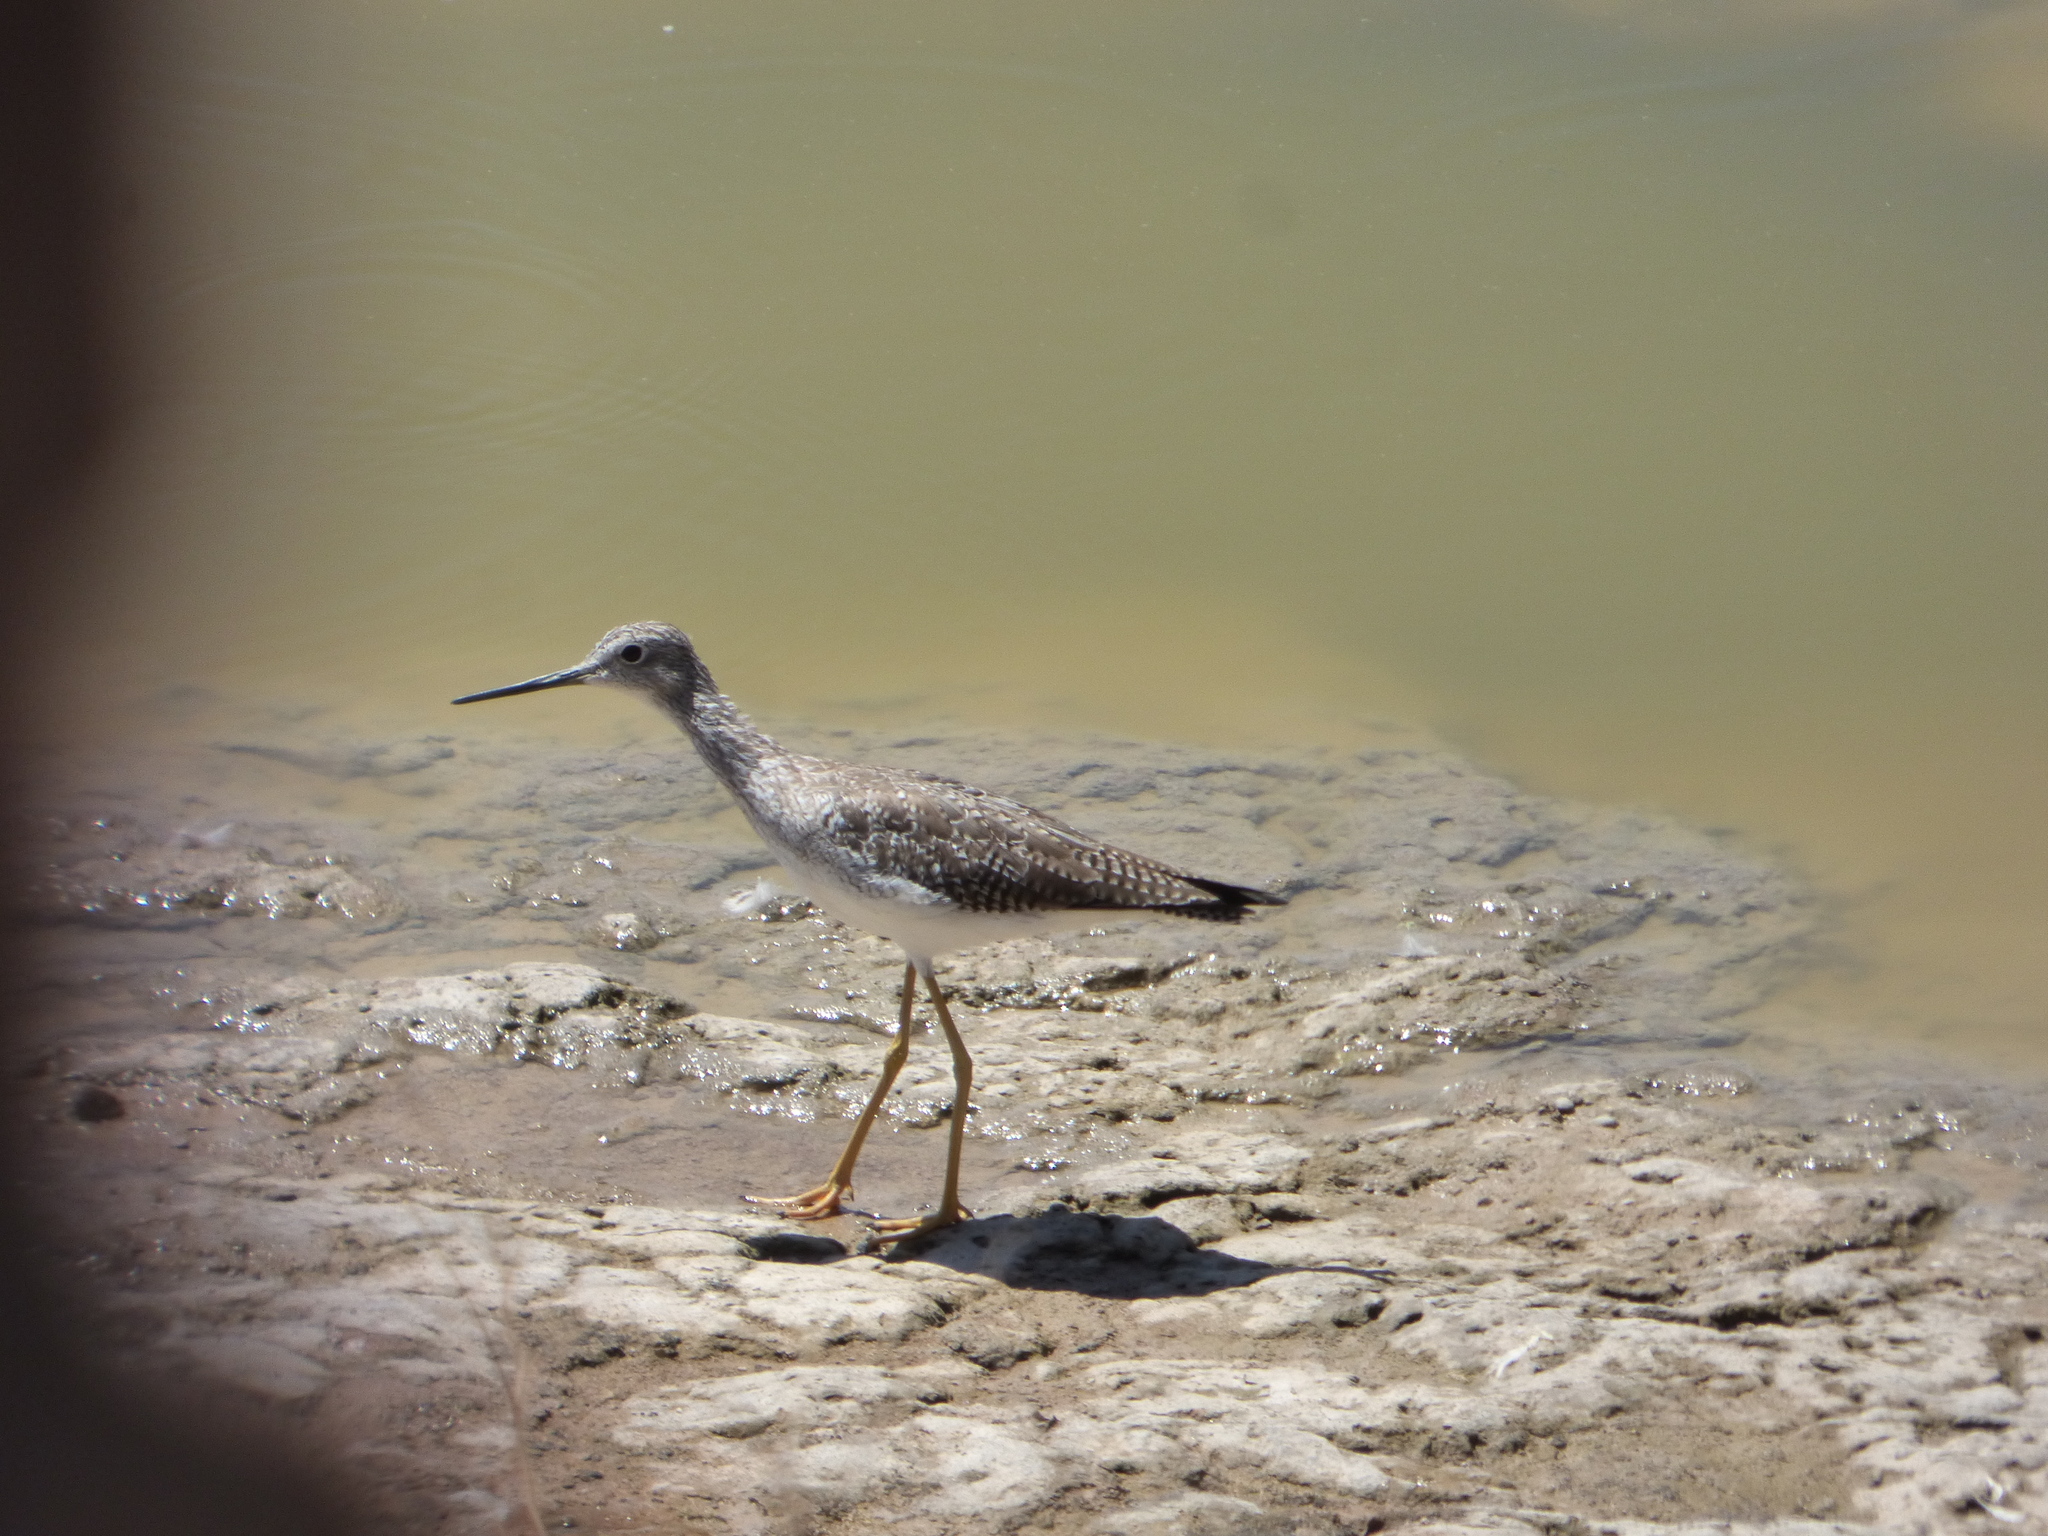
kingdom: Animalia
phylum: Chordata
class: Aves
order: Charadriiformes
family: Scolopacidae
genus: Tringa
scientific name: Tringa melanoleuca
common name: Greater yellowlegs
